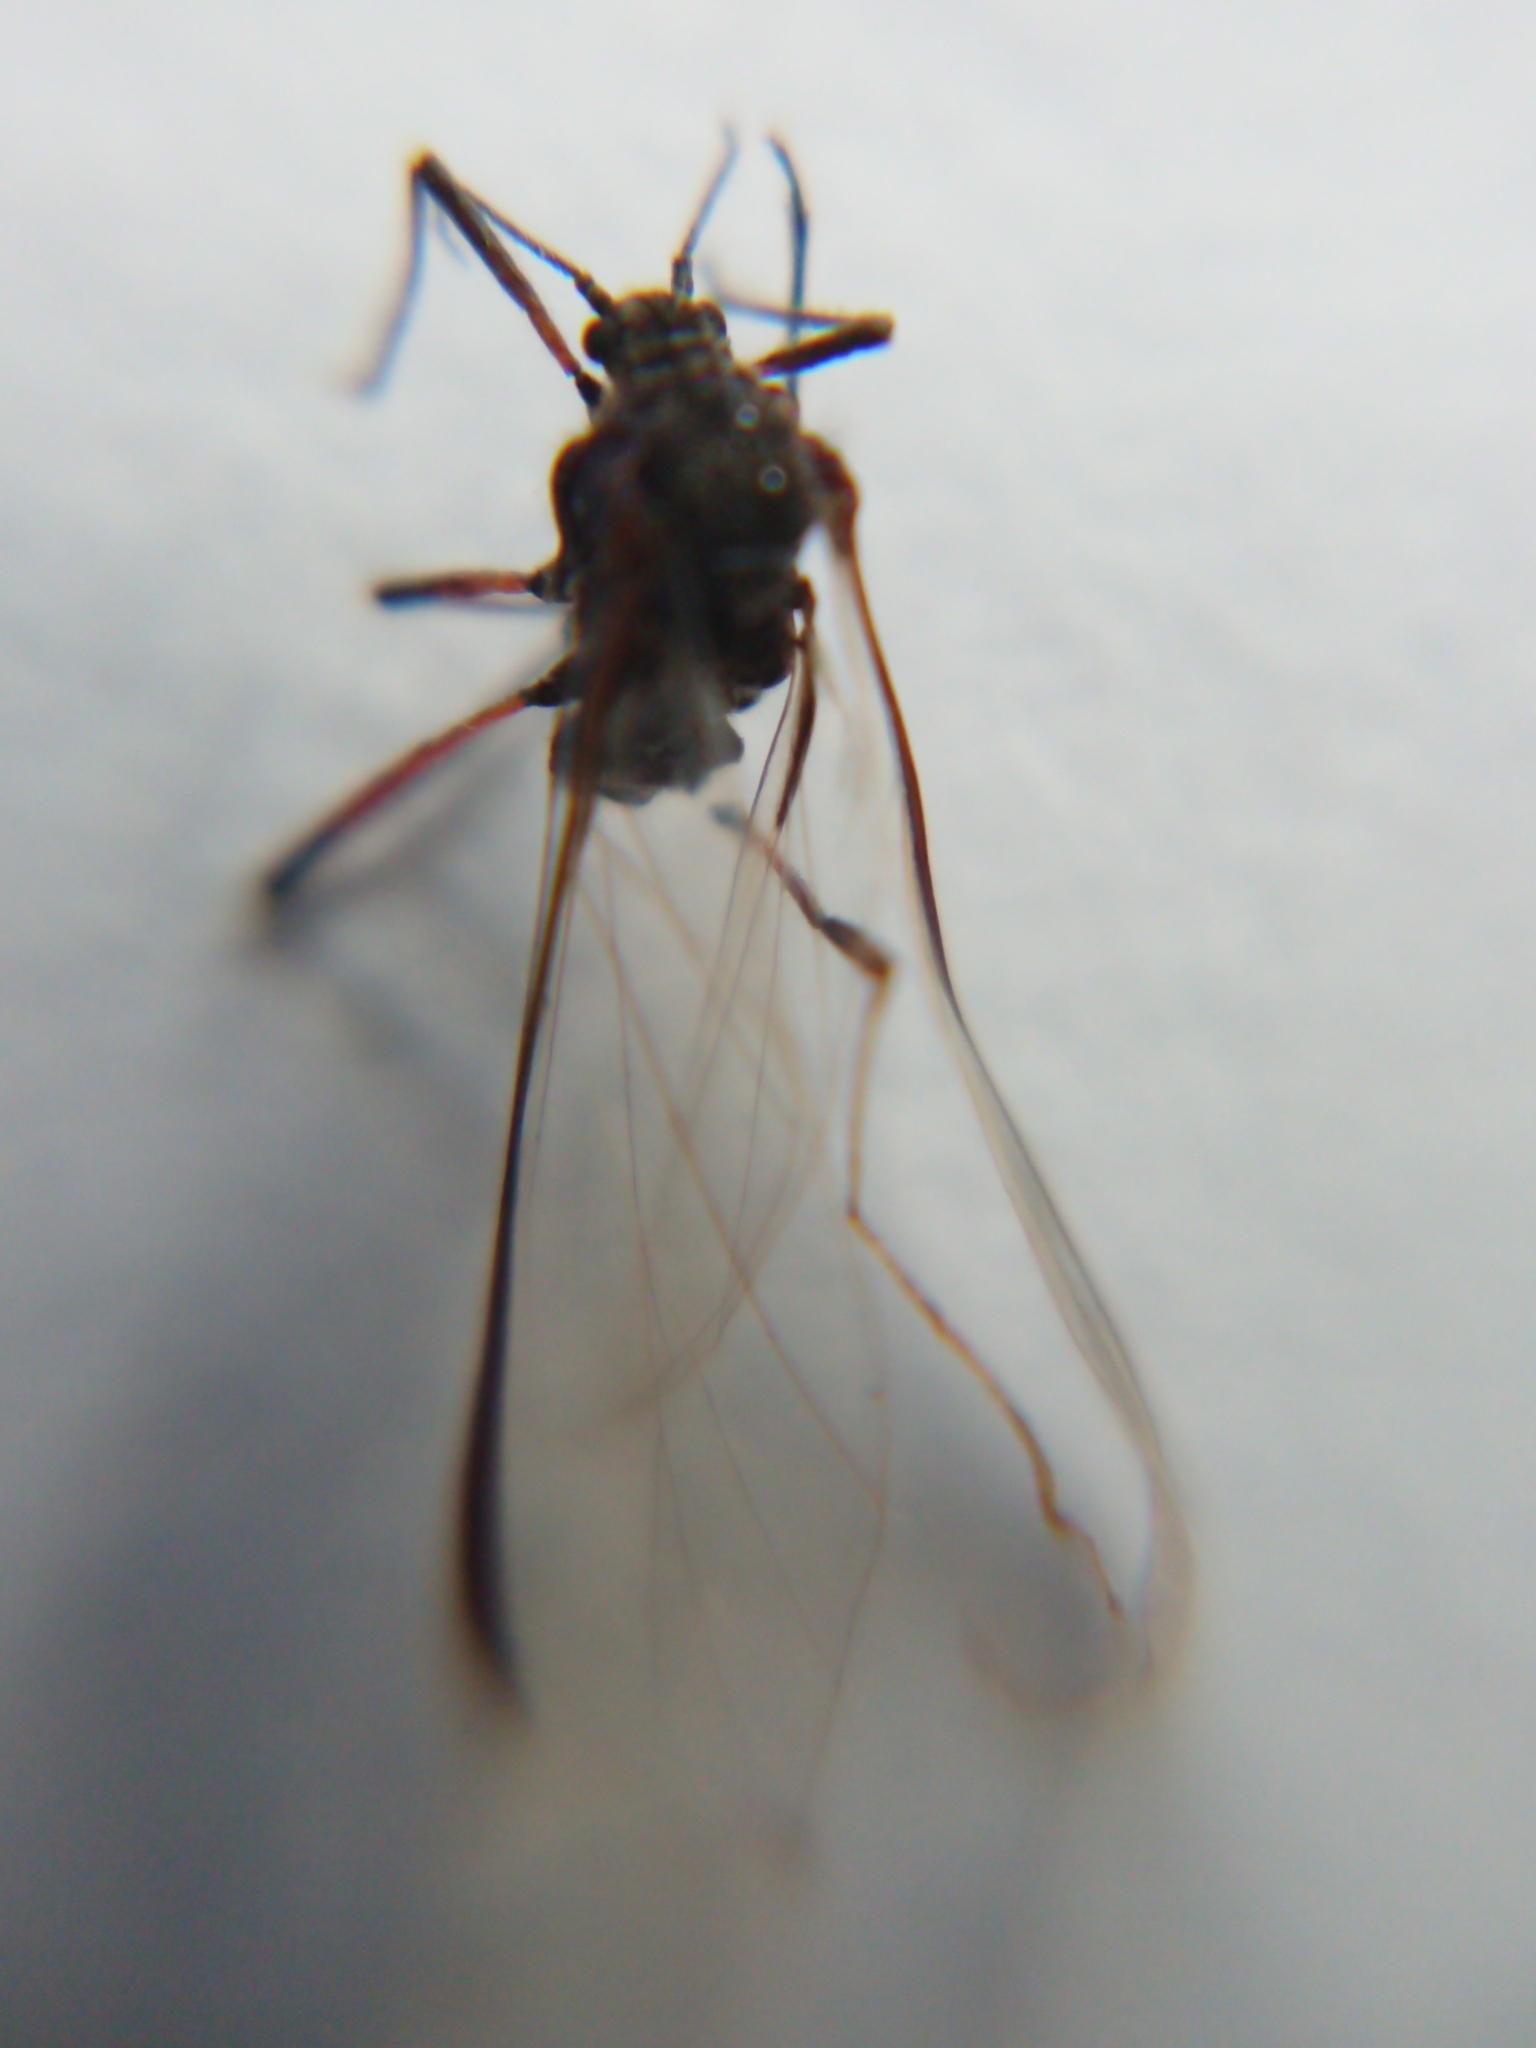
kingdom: Animalia
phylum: Arthropoda
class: Insecta
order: Hemiptera
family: Aphididae
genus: Tuberolachnus
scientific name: Tuberolachnus salignus
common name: Giant willow aphid
